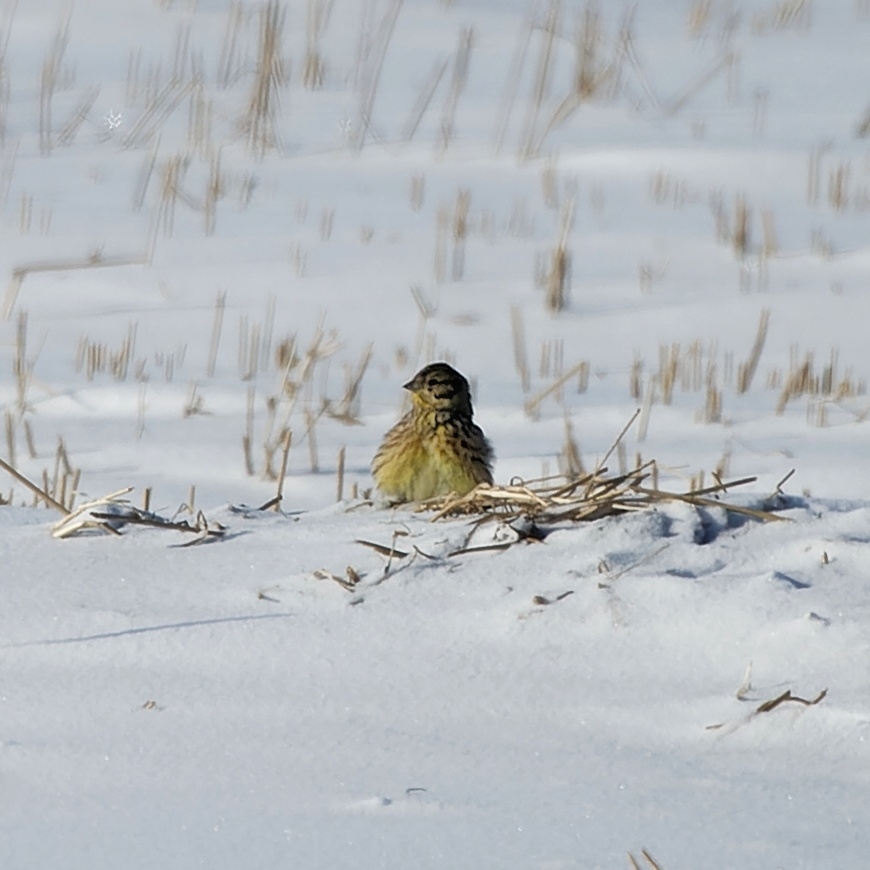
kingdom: Animalia
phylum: Chordata
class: Aves
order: Passeriformes
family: Emberizidae
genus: Emberiza
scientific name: Emberiza citrinella
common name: Yellowhammer
